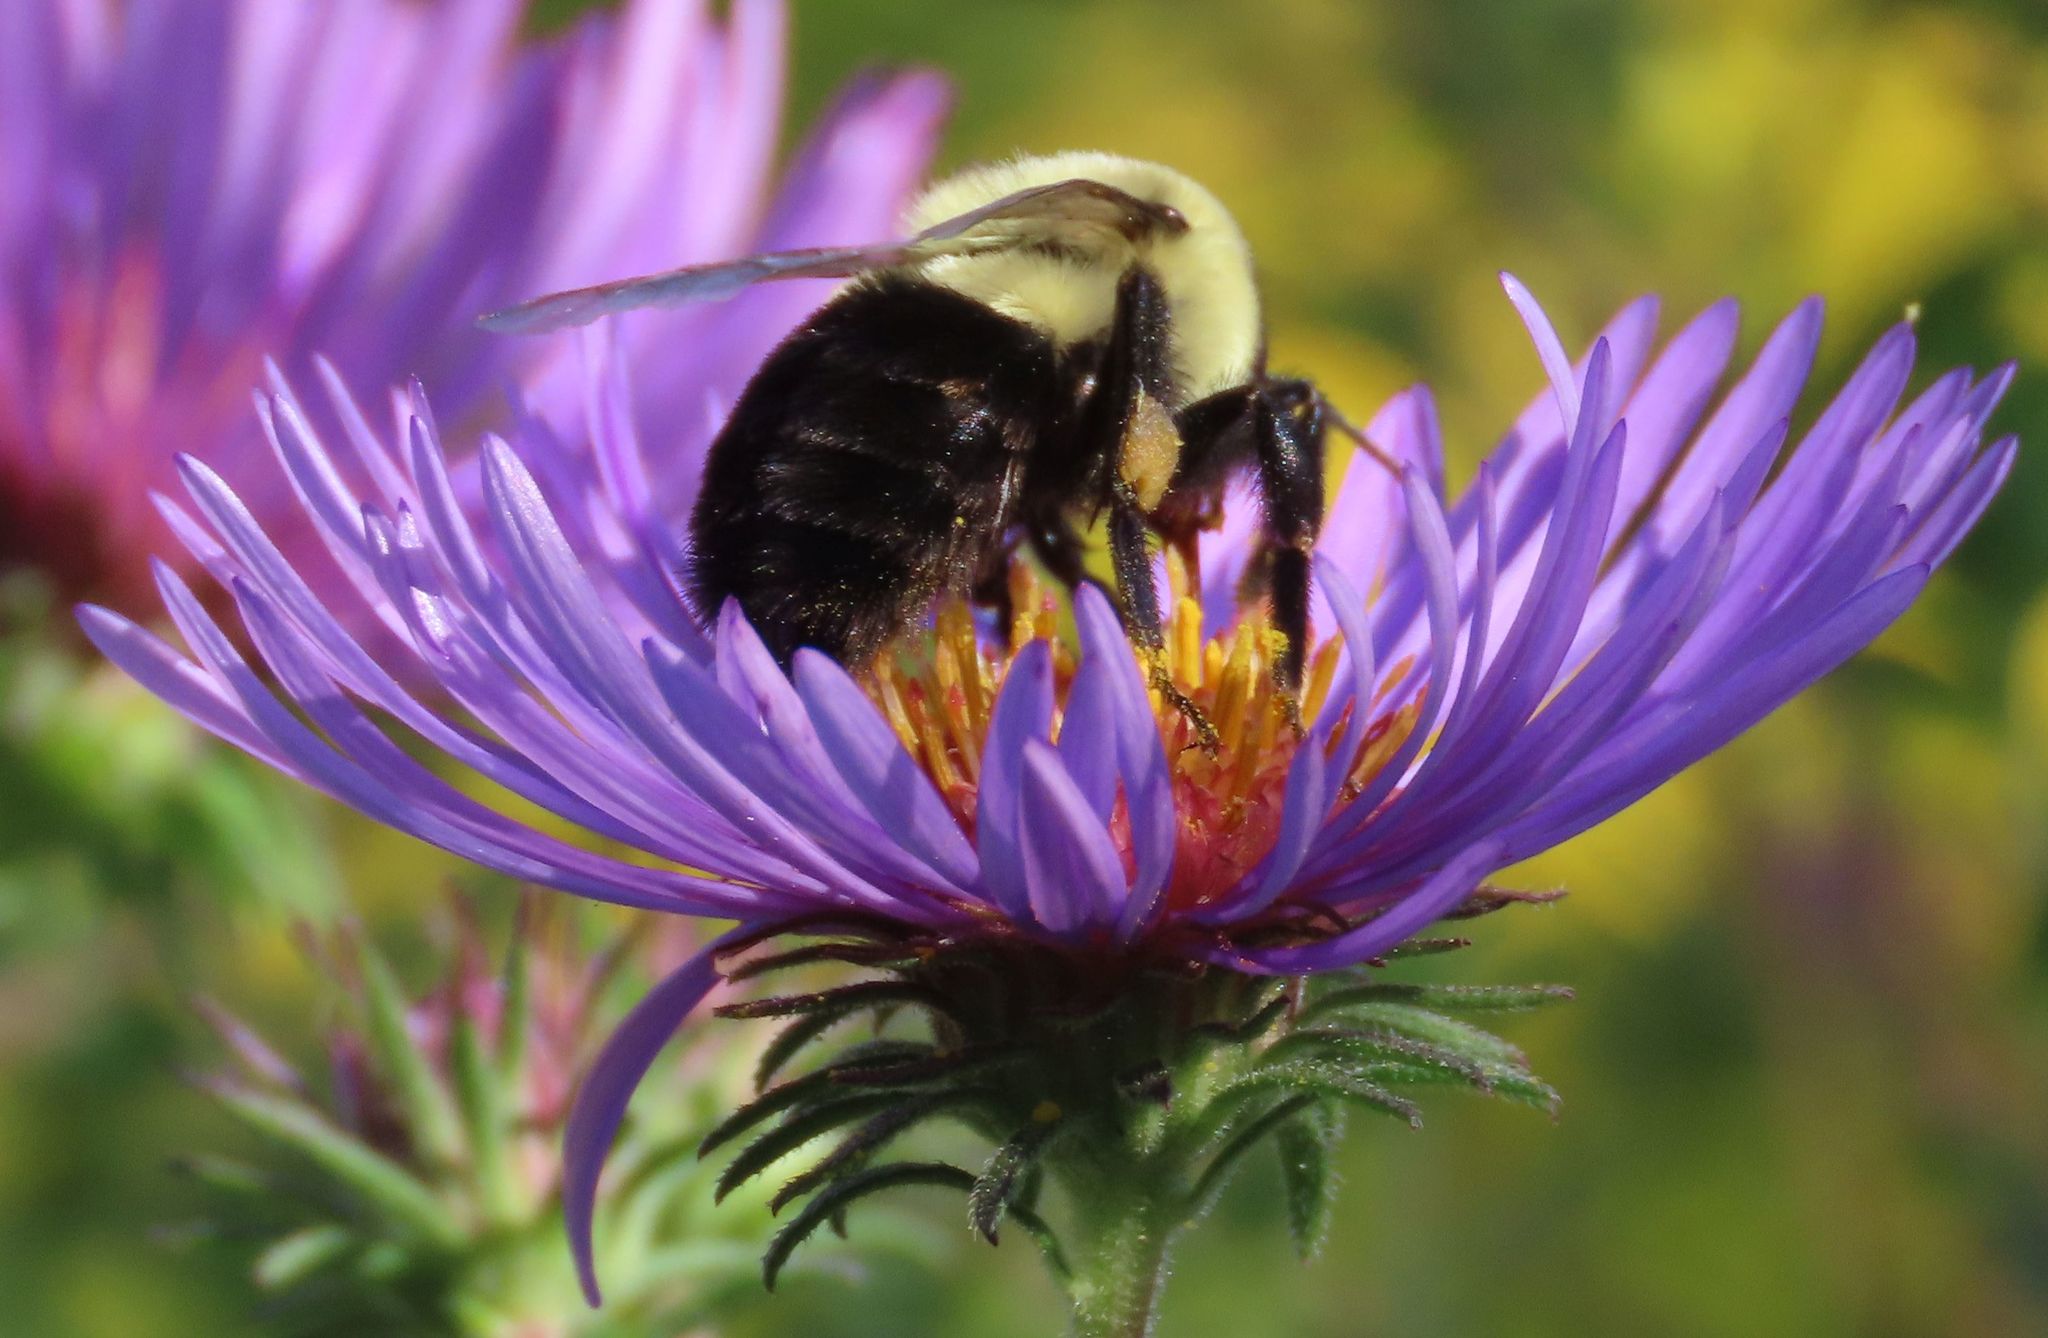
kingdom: Animalia
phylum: Arthropoda
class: Insecta
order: Hymenoptera
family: Apidae
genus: Bombus
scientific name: Bombus impatiens
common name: Common eastern bumble bee
